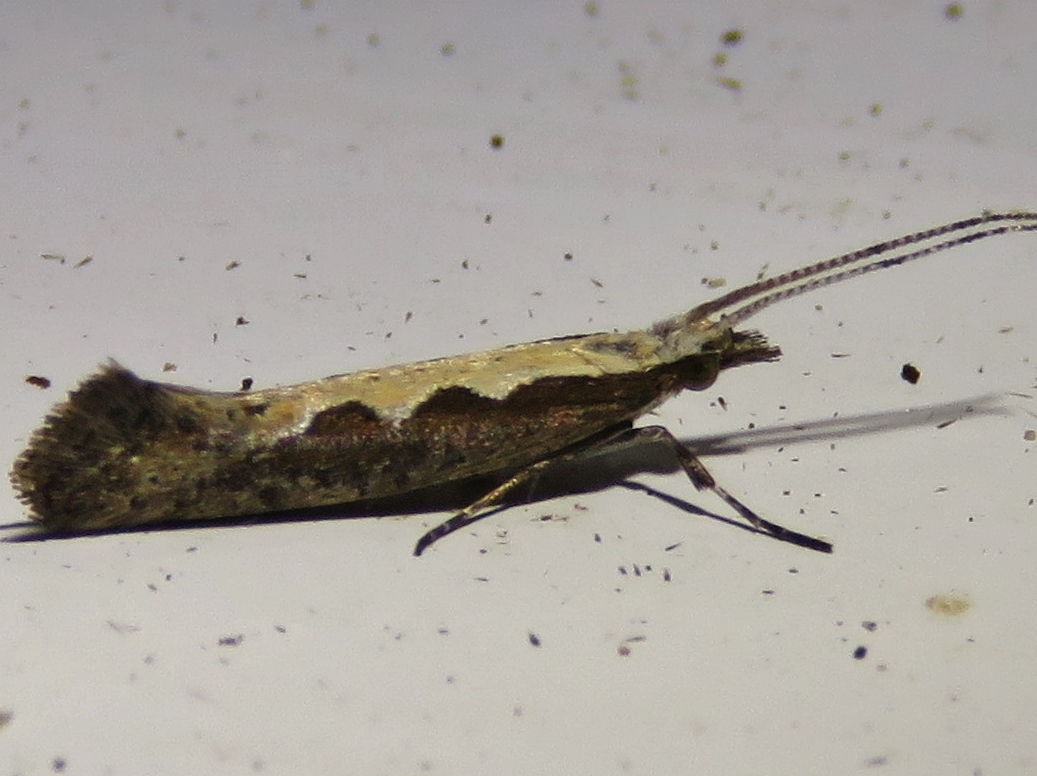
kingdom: Animalia
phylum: Arthropoda
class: Insecta
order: Lepidoptera
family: Plutellidae
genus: Plutella
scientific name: Plutella xylostella
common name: Diamond-back moth
